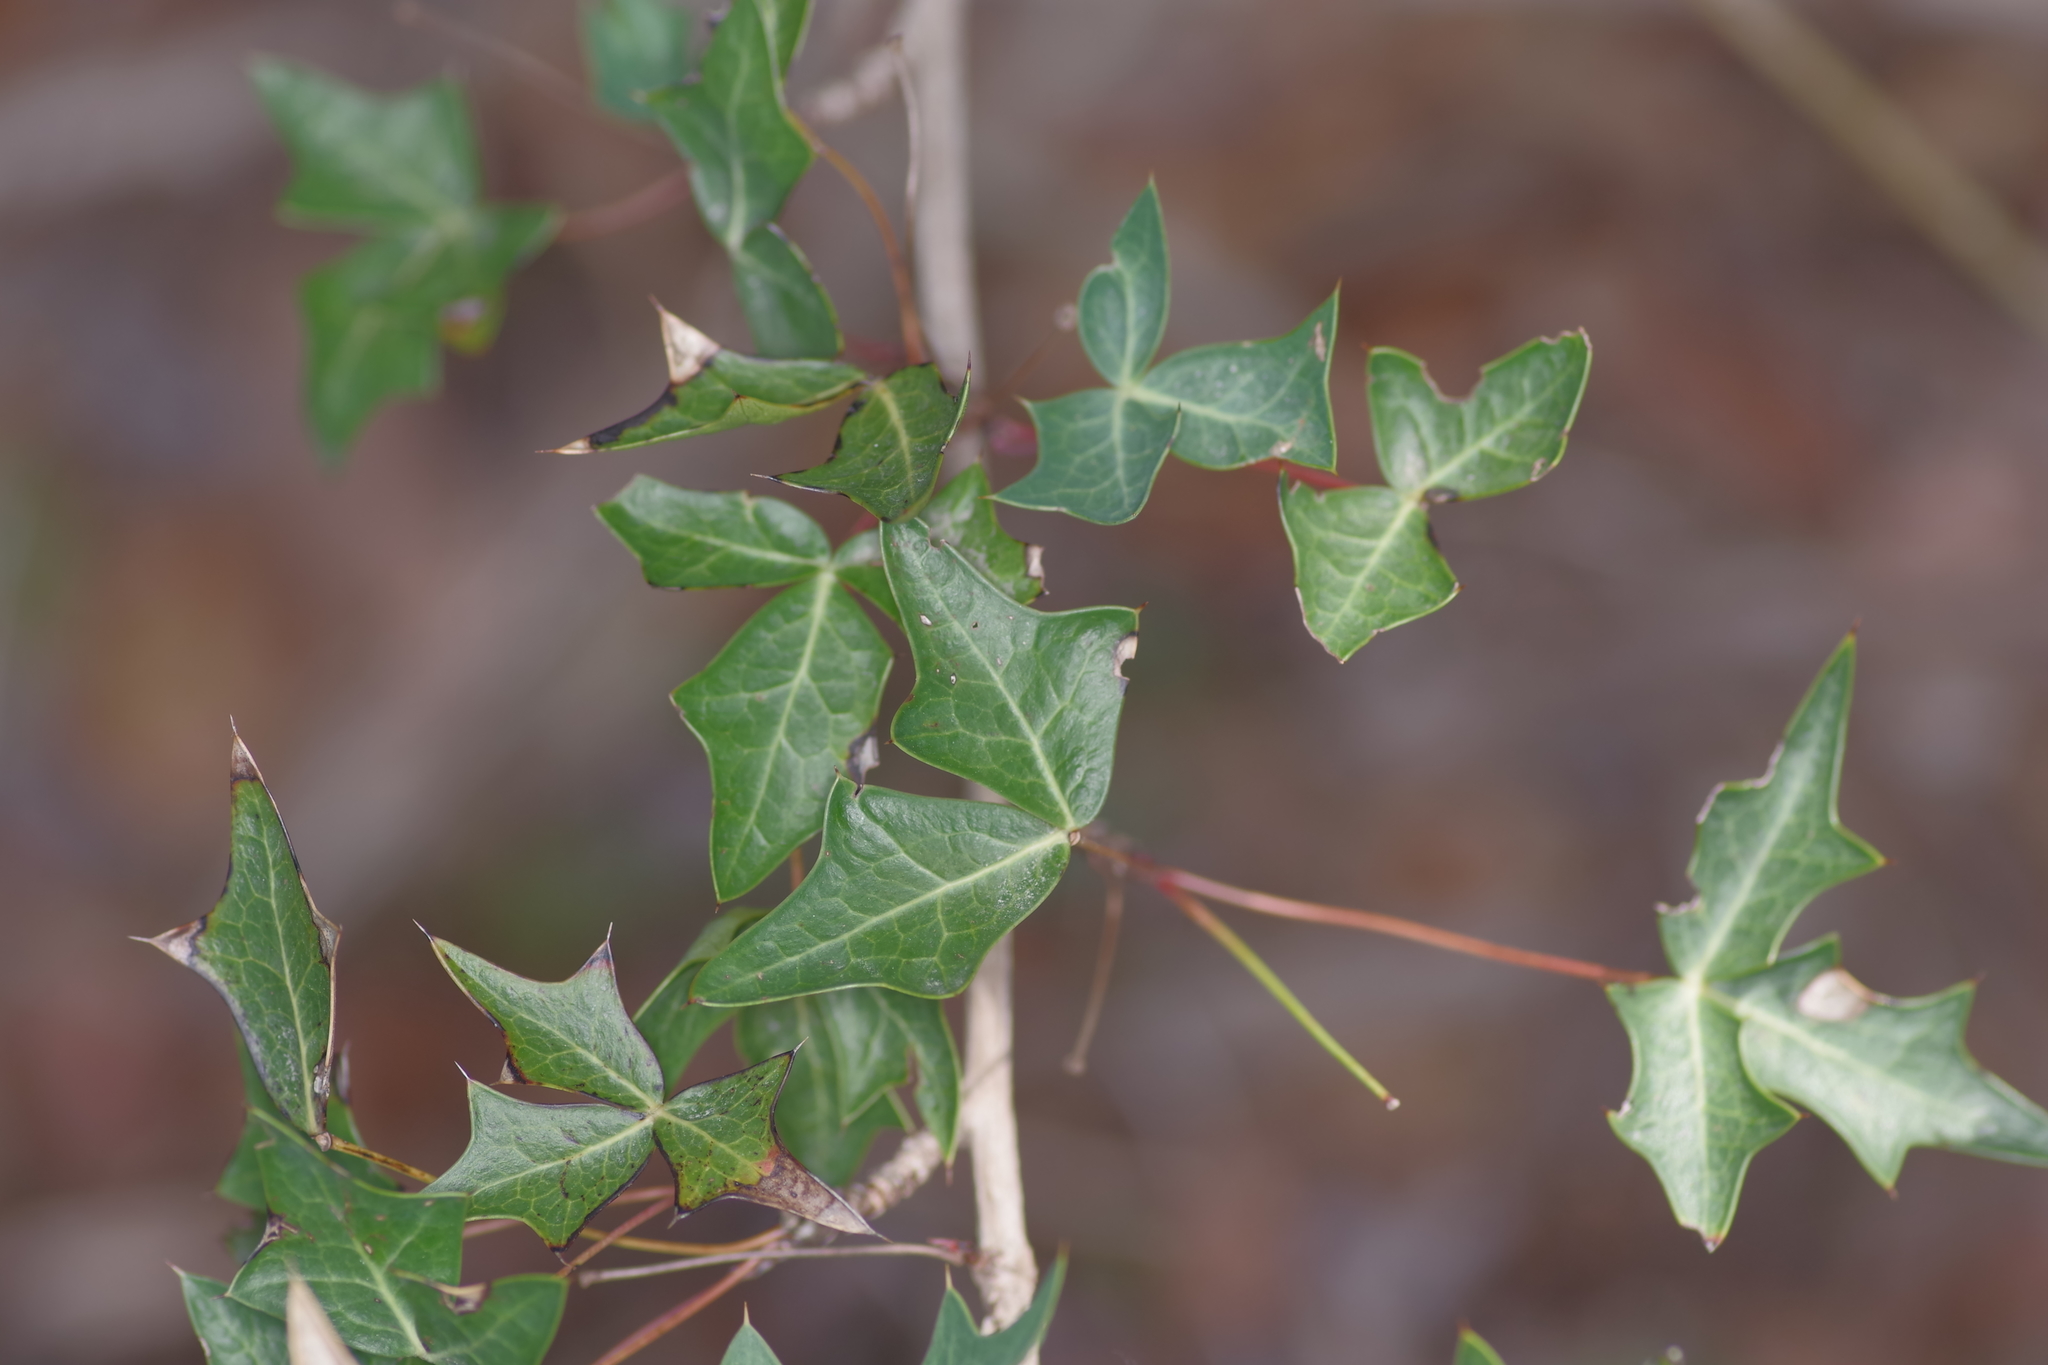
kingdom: Plantae
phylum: Tracheophyta
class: Magnoliopsida
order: Ranunculales
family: Berberidaceae
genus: Alloberberis
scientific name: Alloberberis trifoliolata
